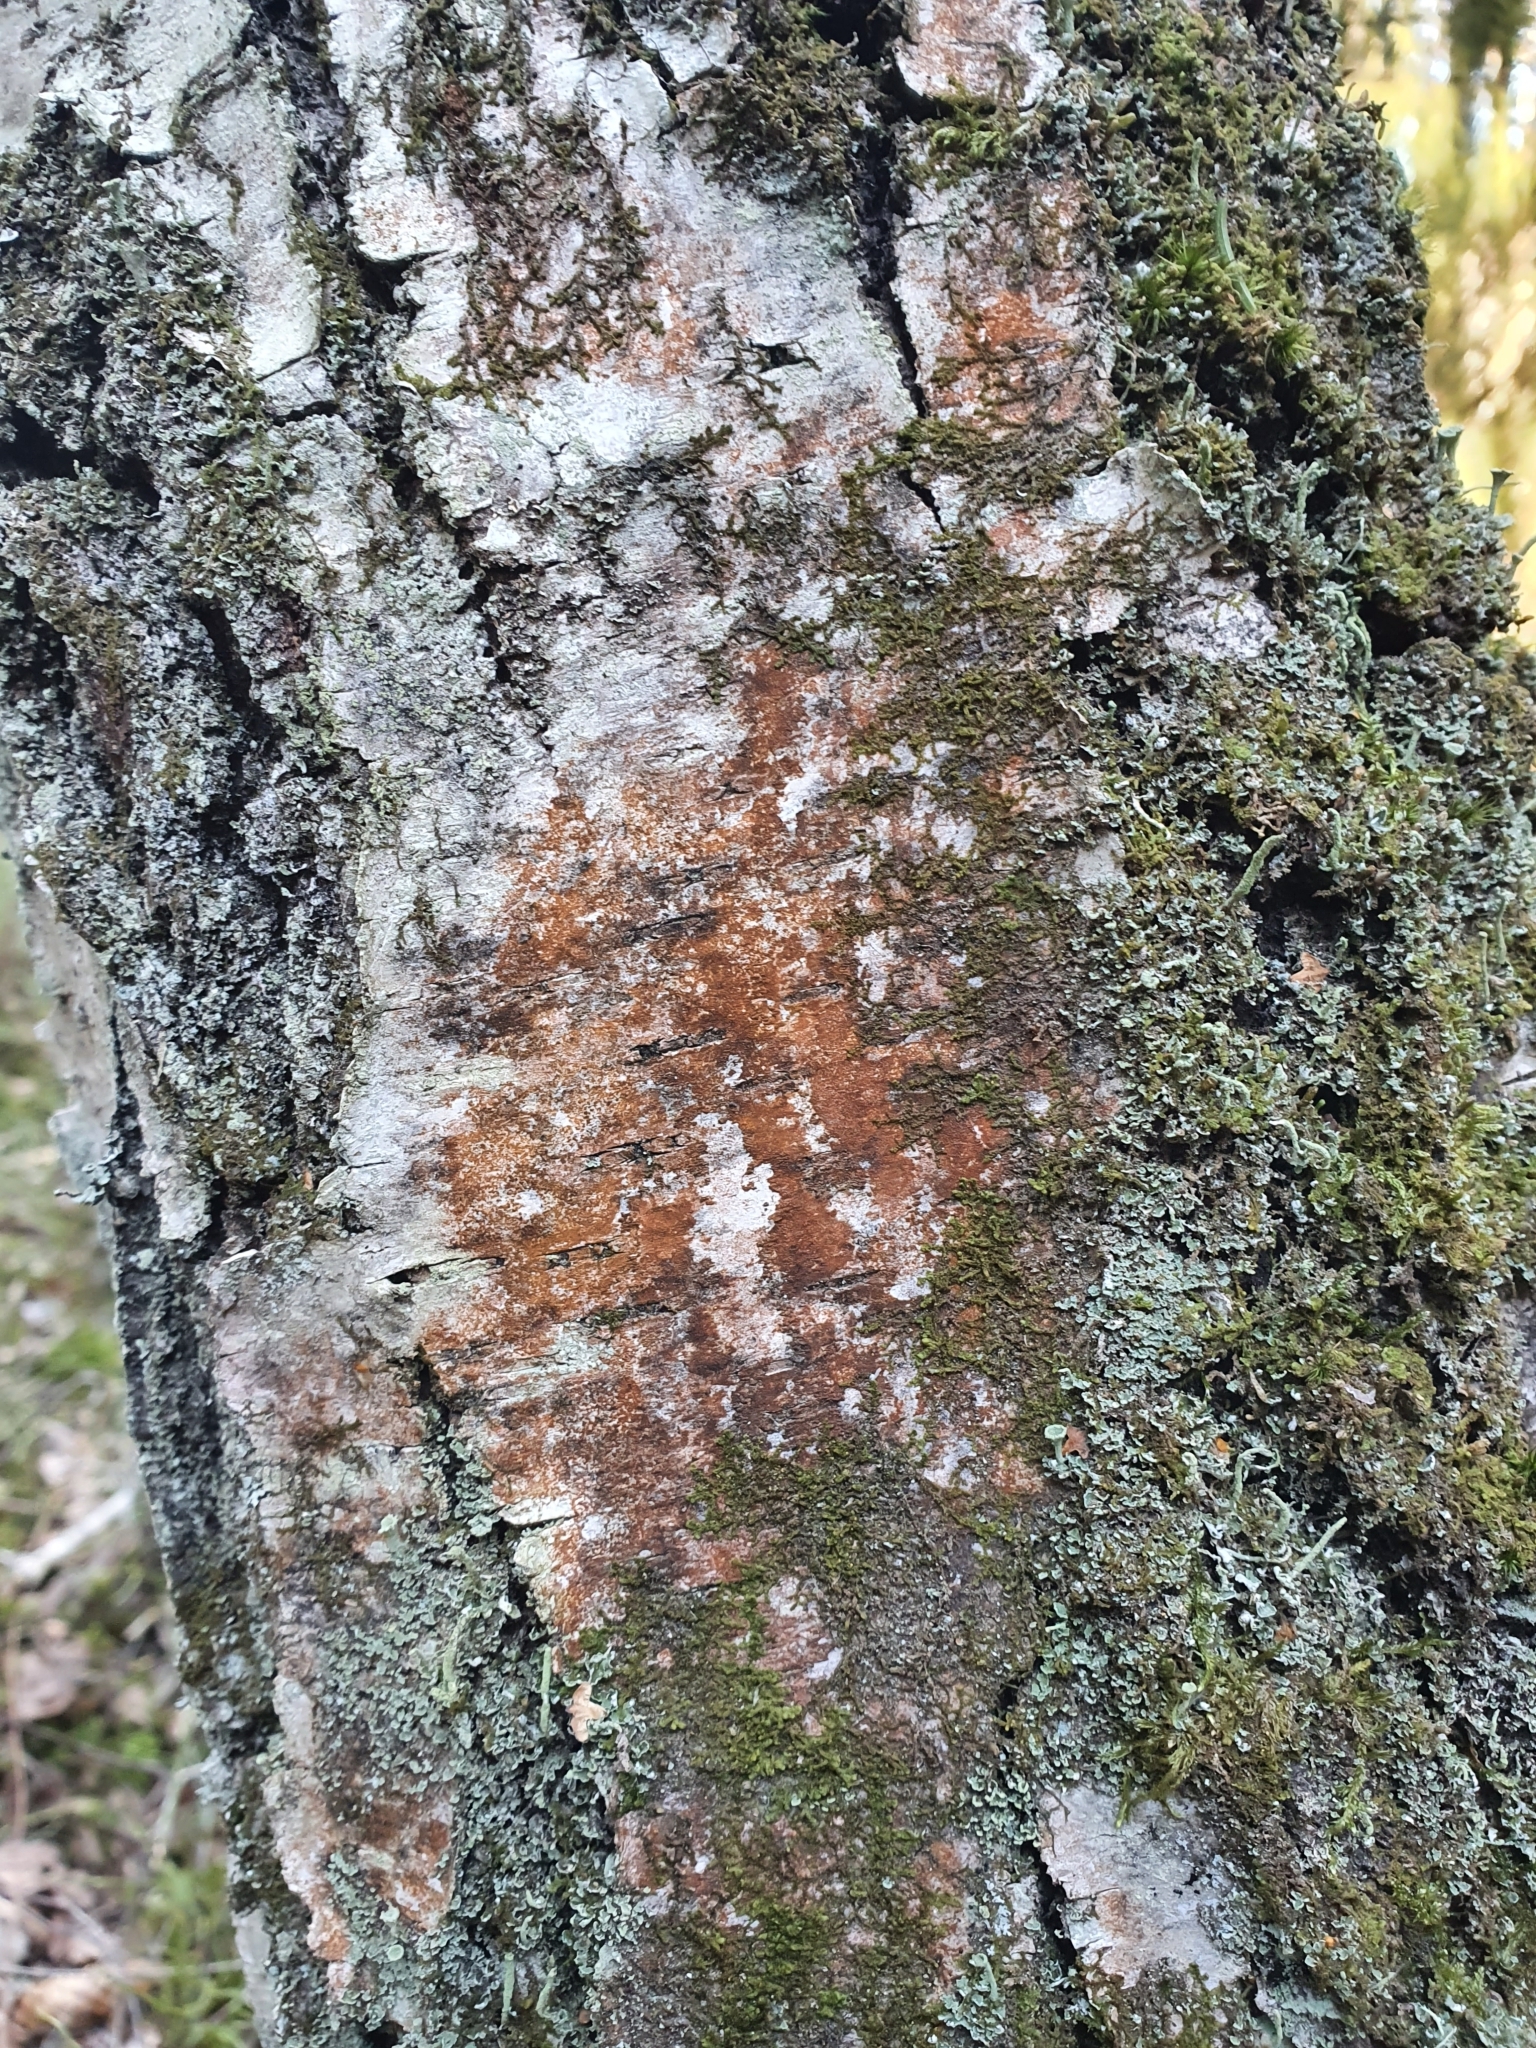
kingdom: Plantae
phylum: Chlorophyta
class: Ulvophyceae
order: Trentepohliales
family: Trentepohliaceae
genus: Trentepohlia
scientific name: Trentepohlia umbrina
